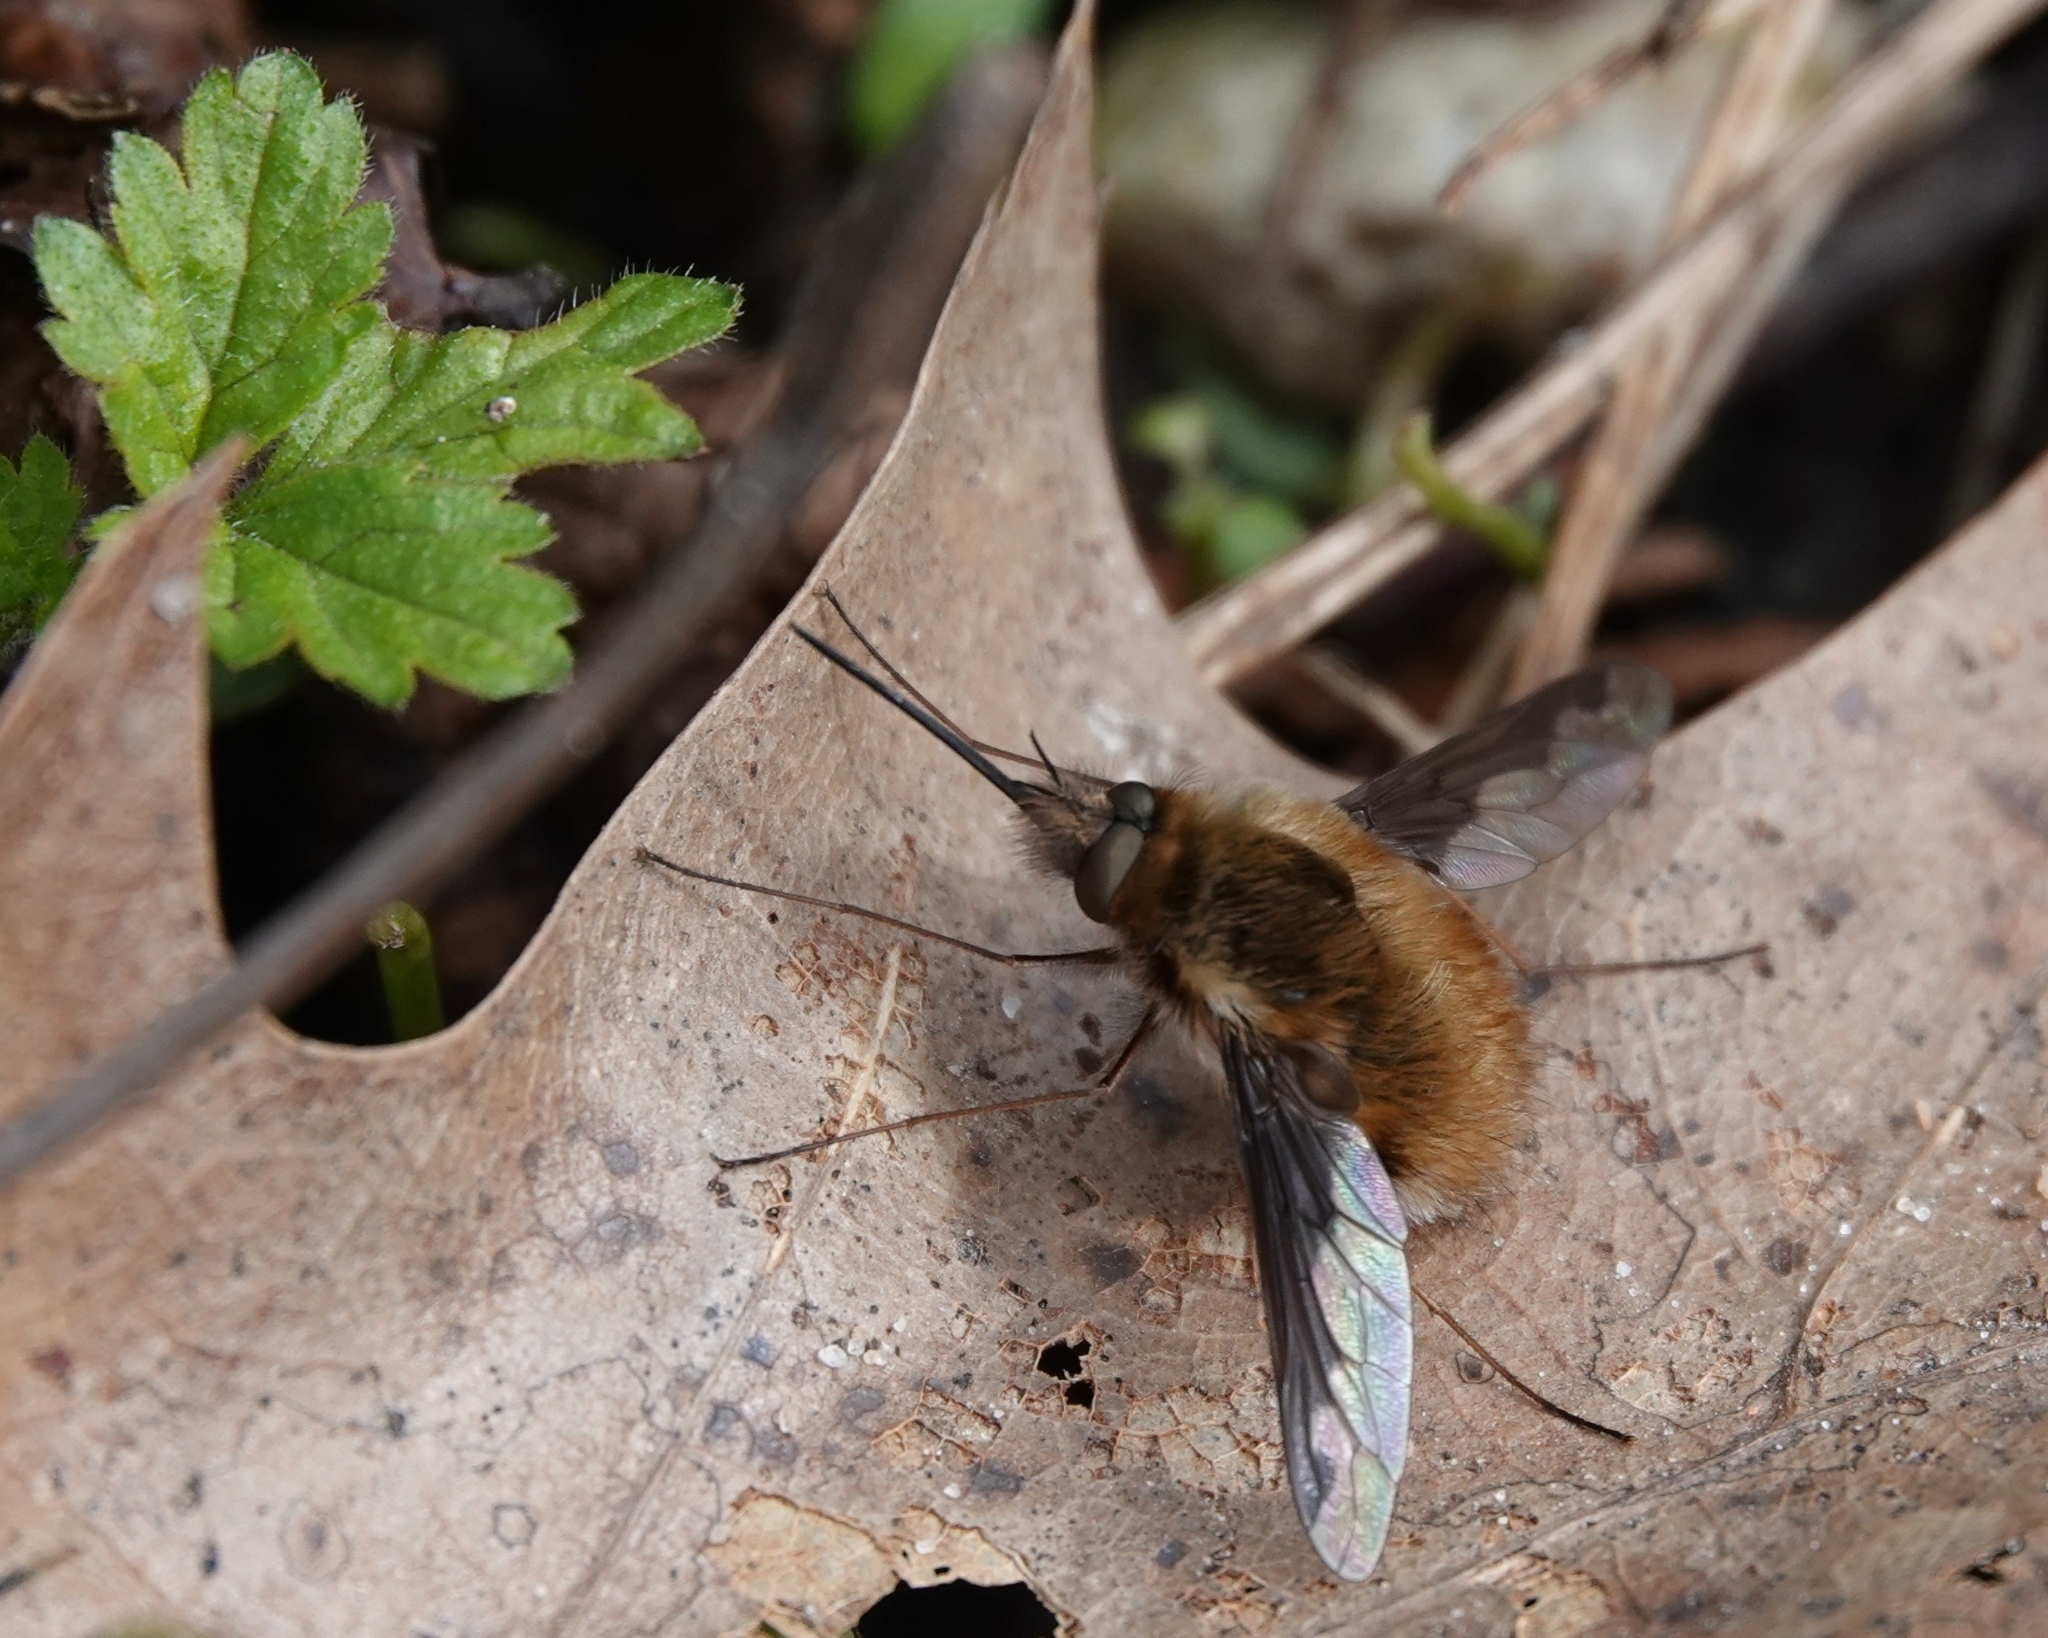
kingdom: Animalia
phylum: Arthropoda
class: Insecta
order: Diptera
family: Bombyliidae
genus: Bombylius
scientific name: Bombylius major
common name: Bee fly
